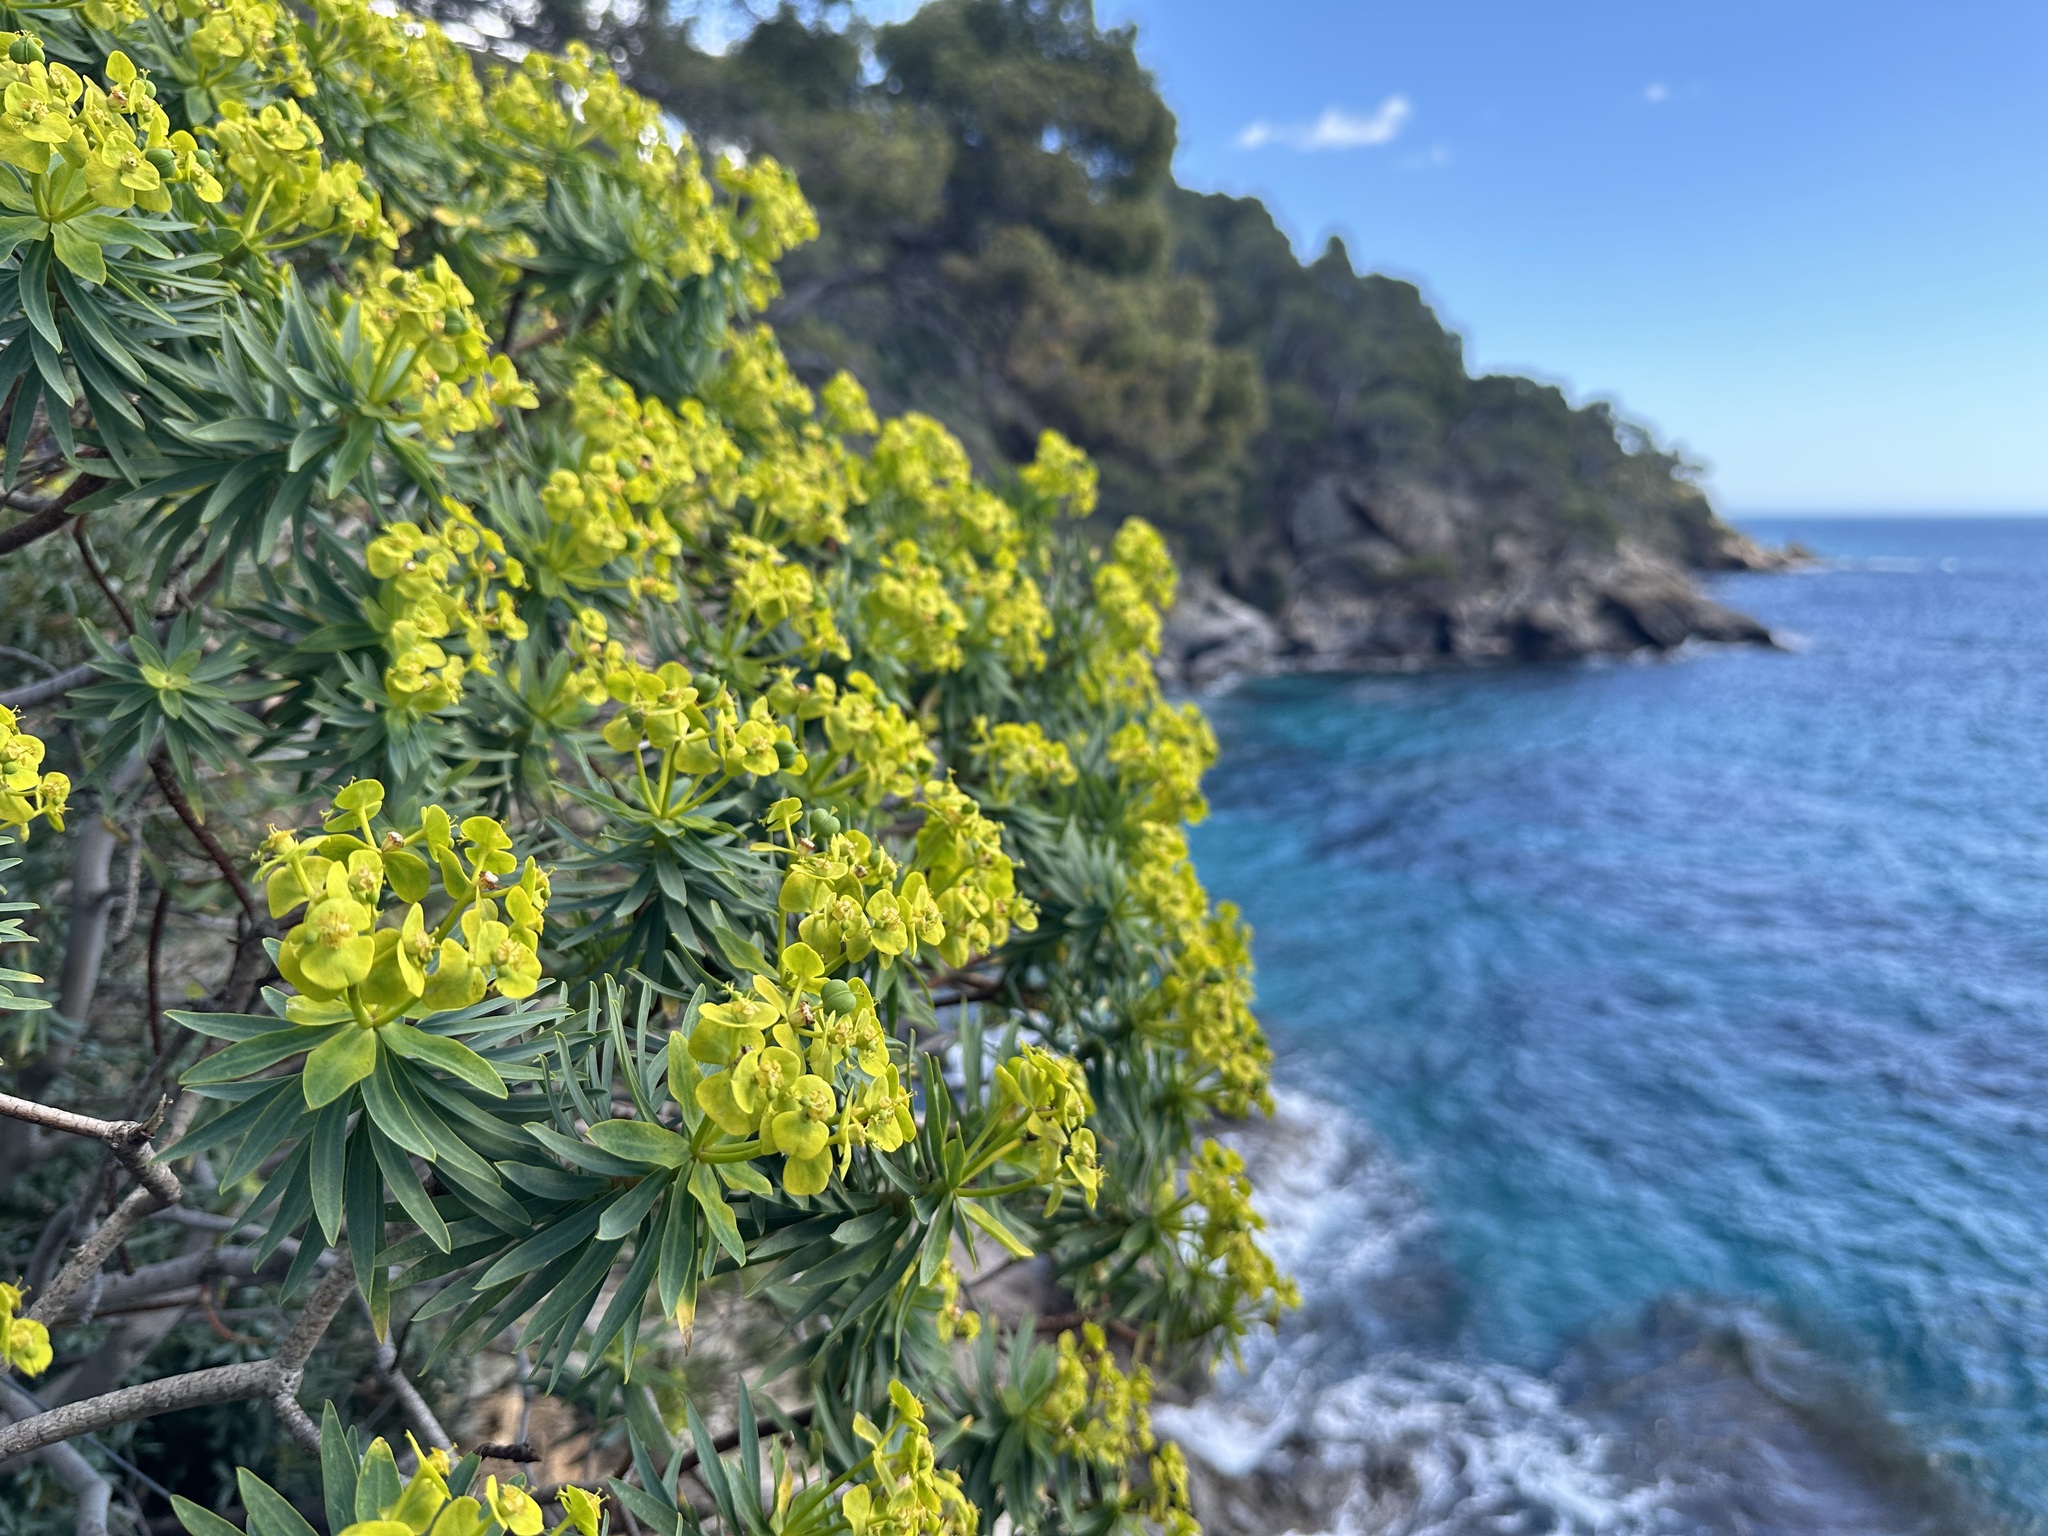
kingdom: Plantae
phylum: Tracheophyta
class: Magnoliopsida
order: Malpighiales
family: Euphorbiaceae
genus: Euphorbia
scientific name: Euphorbia dendroides
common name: Tree spurge
